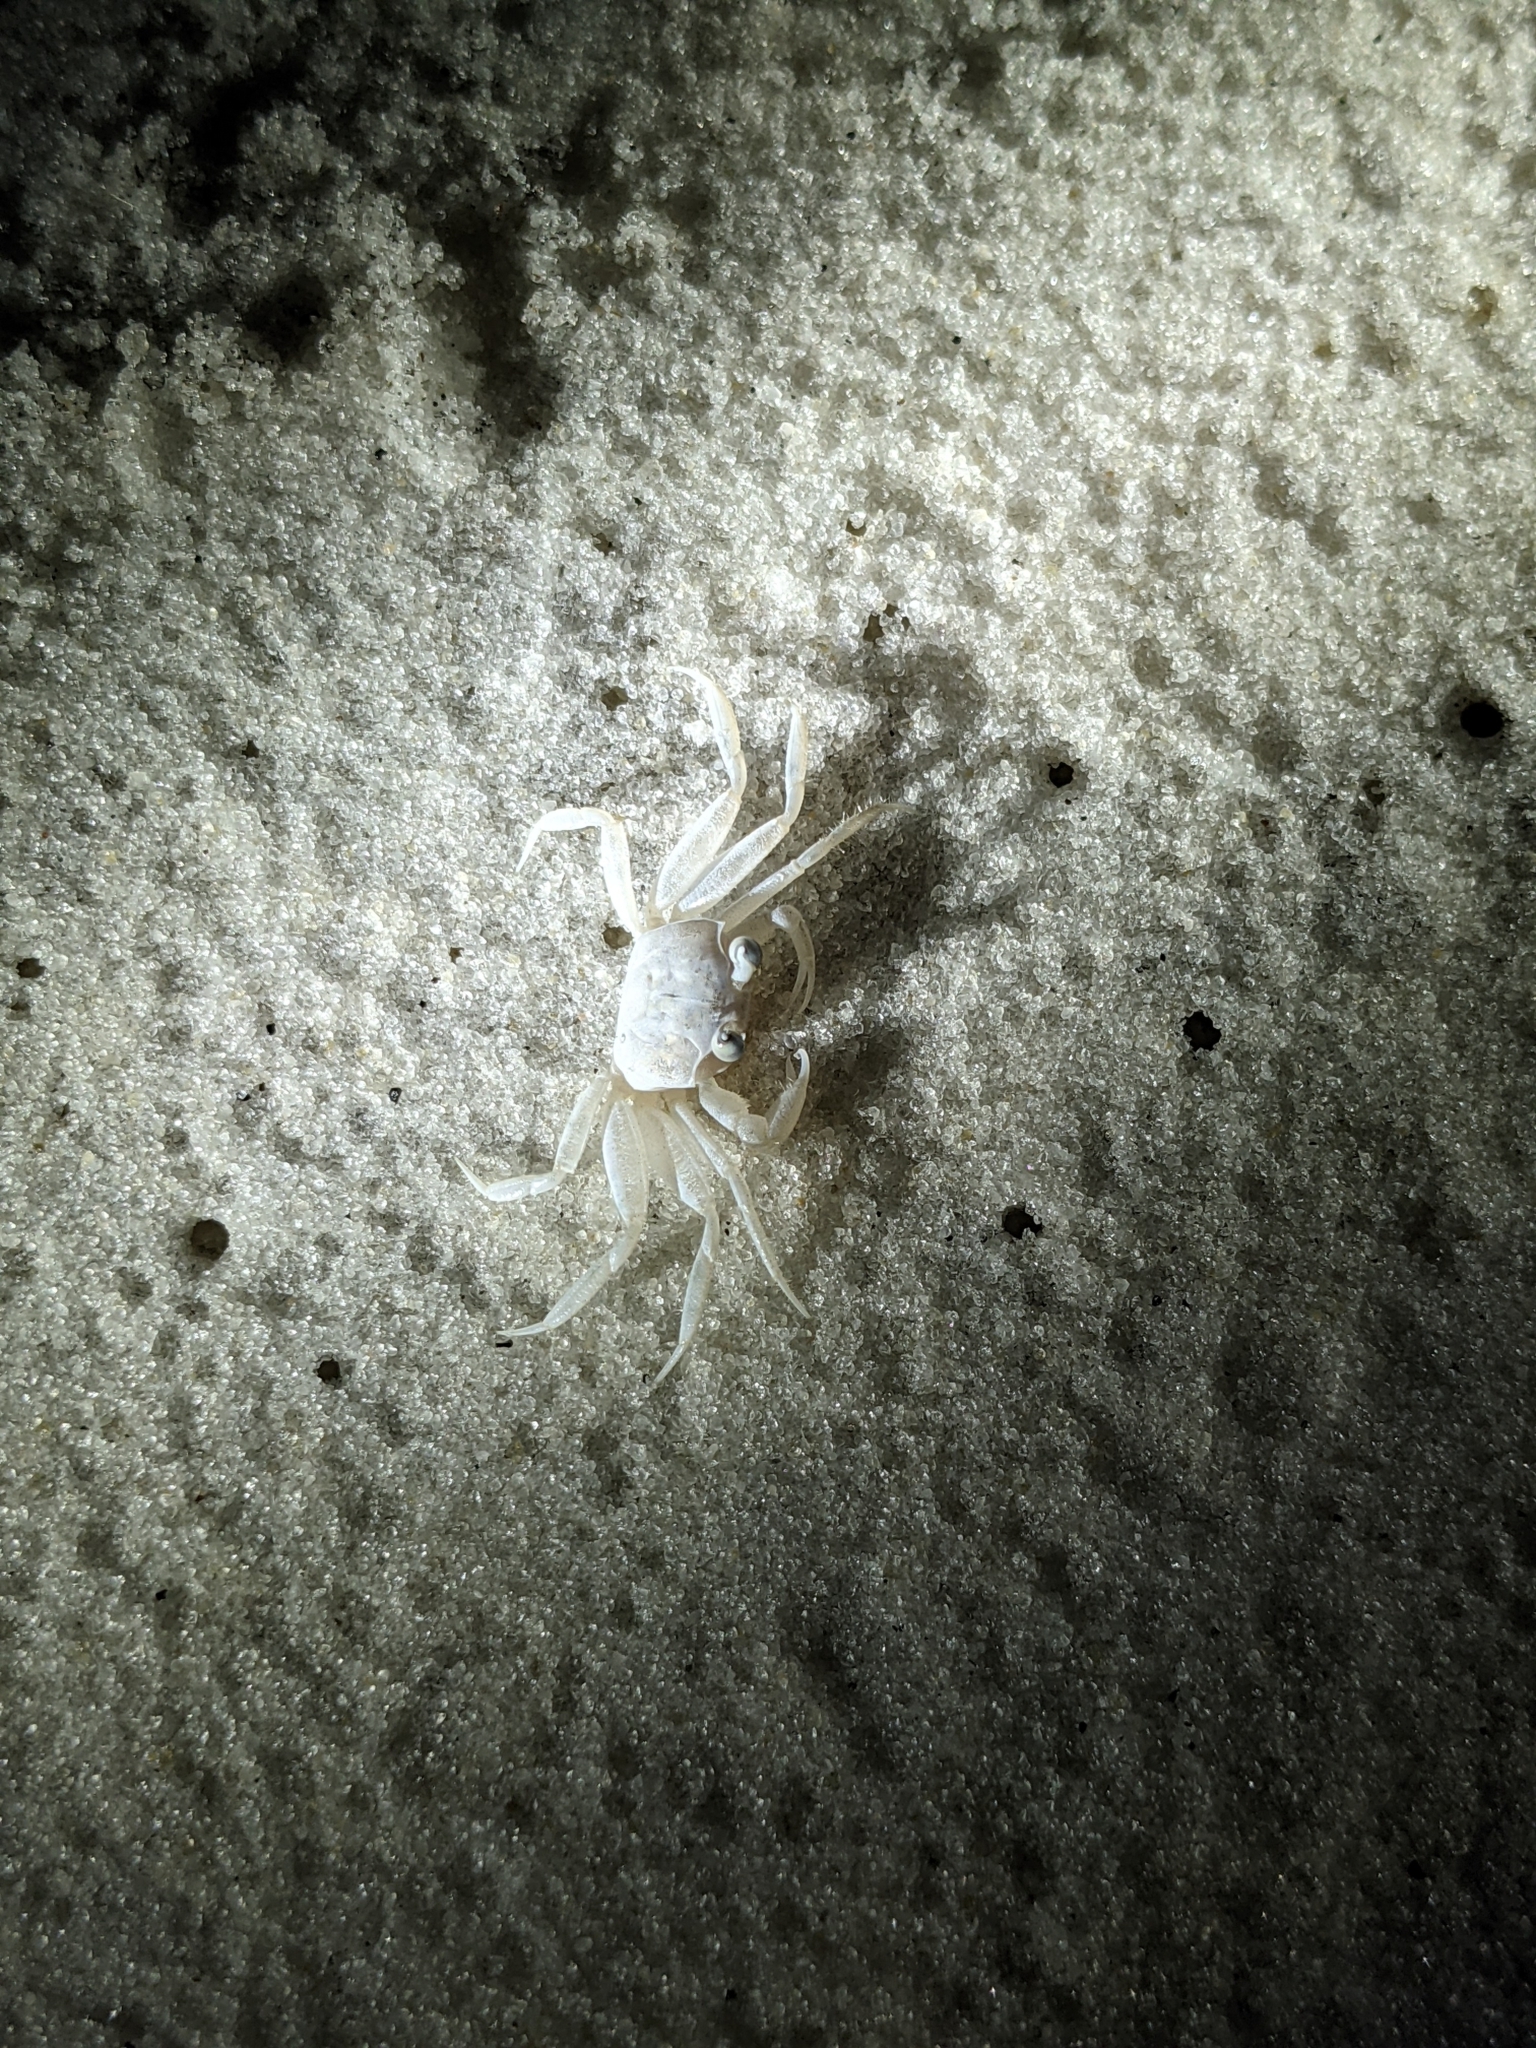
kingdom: Animalia
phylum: Arthropoda
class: Malacostraca
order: Decapoda
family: Ocypodidae
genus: Ocypode
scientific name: Ocypode quadrata
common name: Ghost crab
